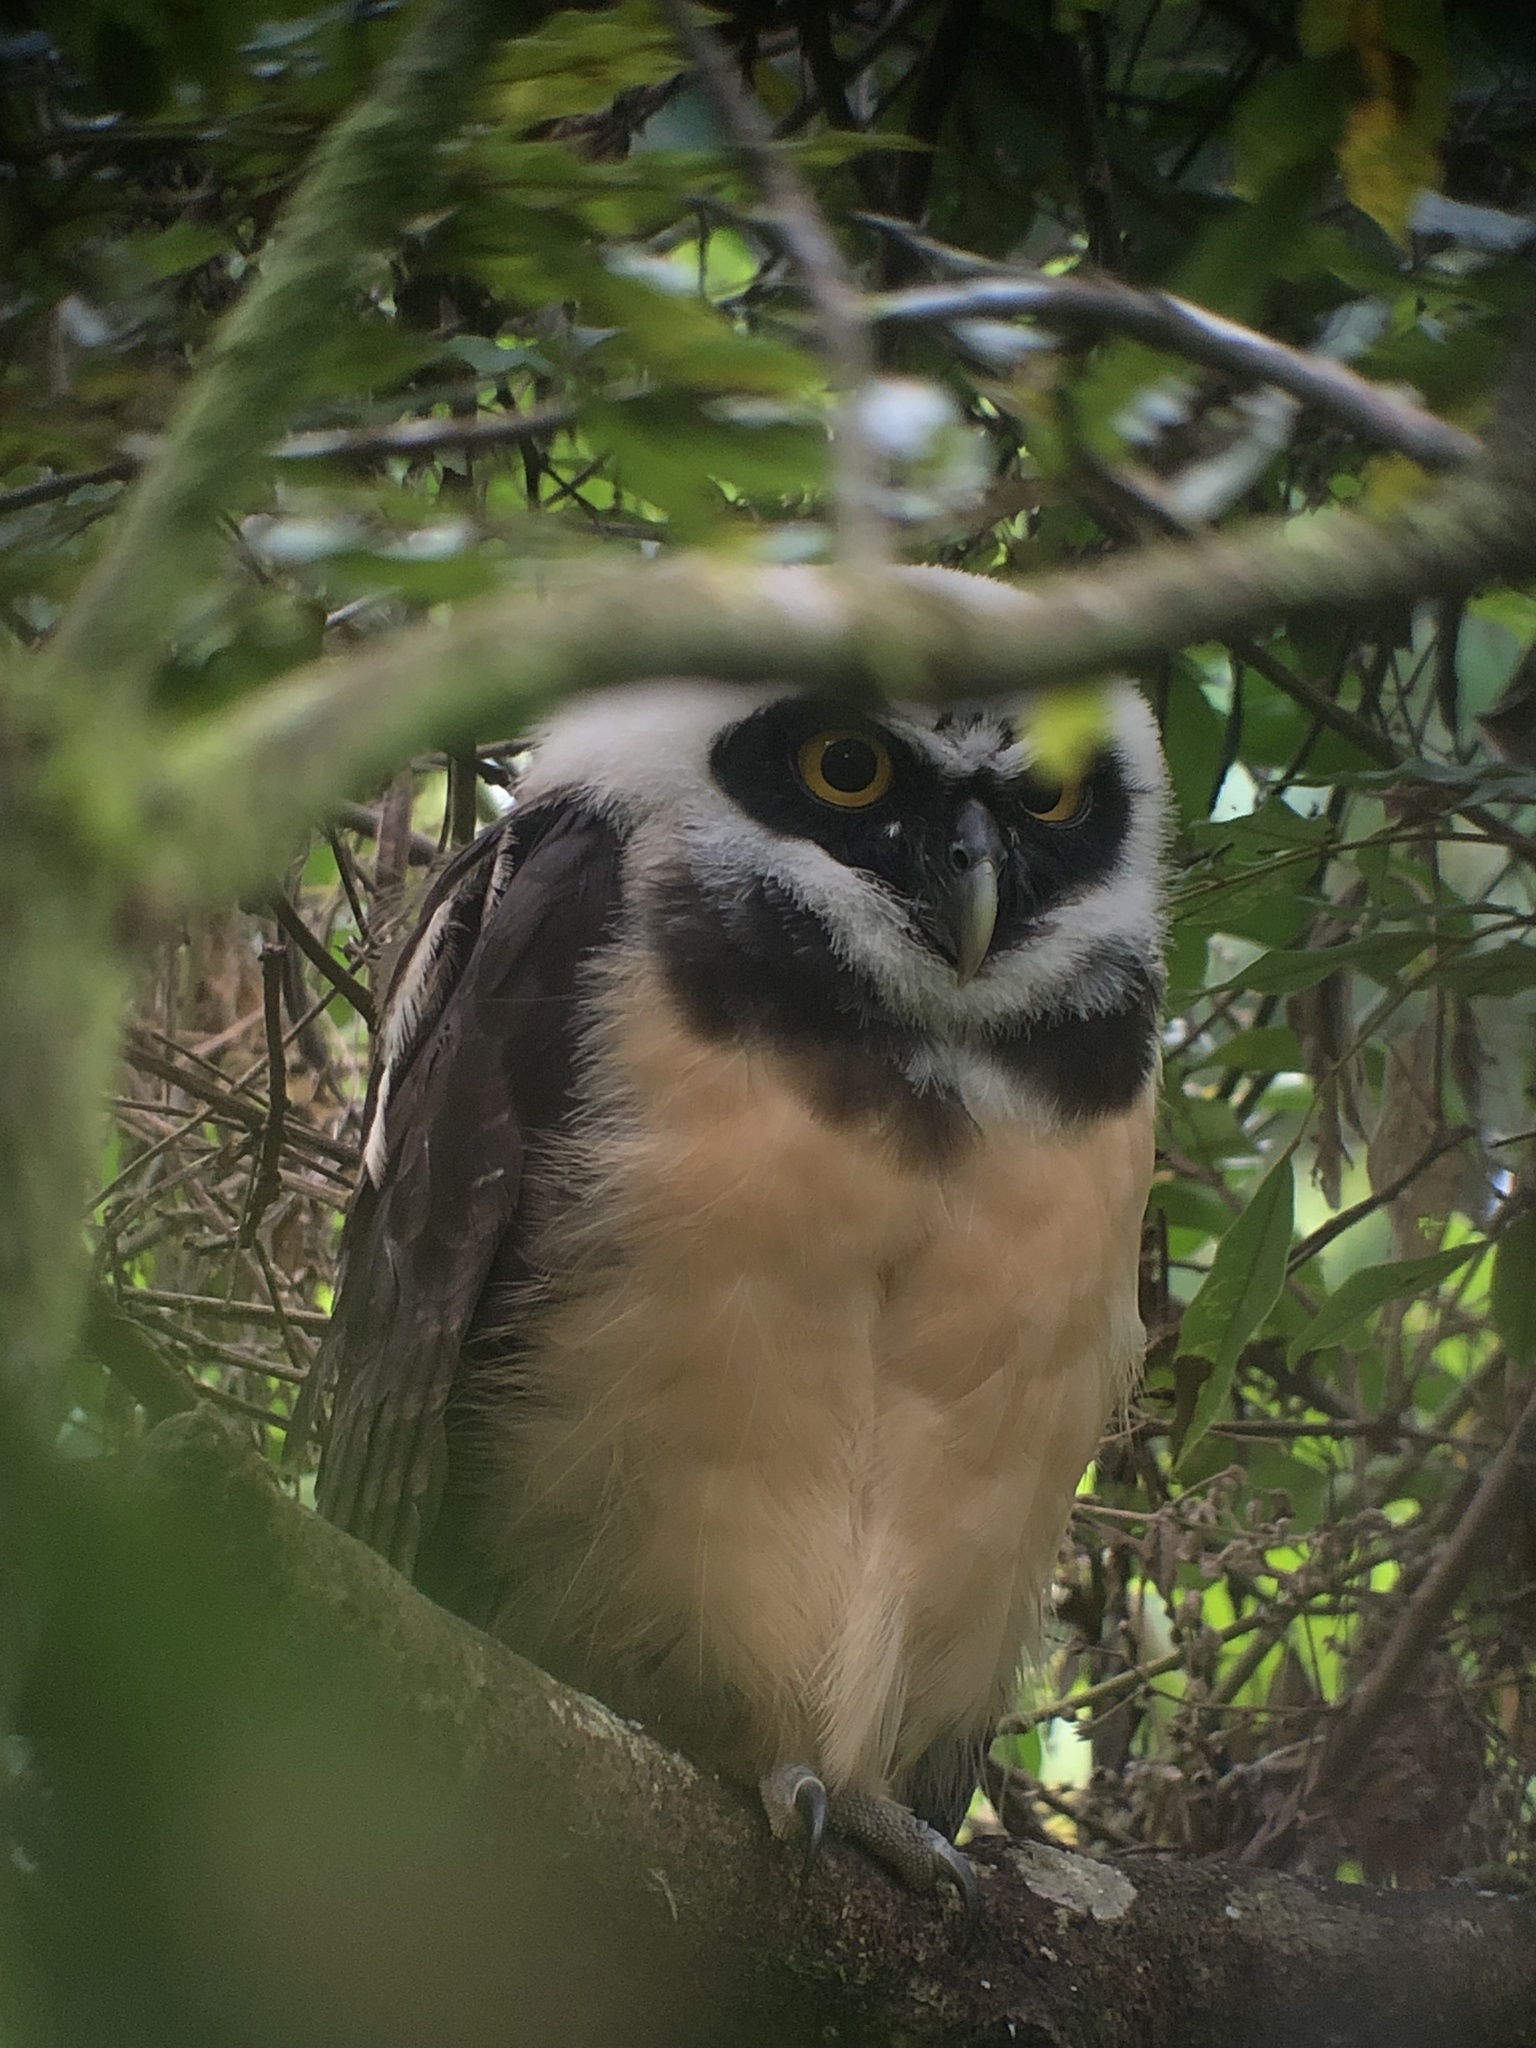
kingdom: Animalia
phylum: Chordata
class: Aves
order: Strigiformes
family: Strigidae
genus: Pulsatrix
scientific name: Pulsatrix perspicillata
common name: Spectacled owl
